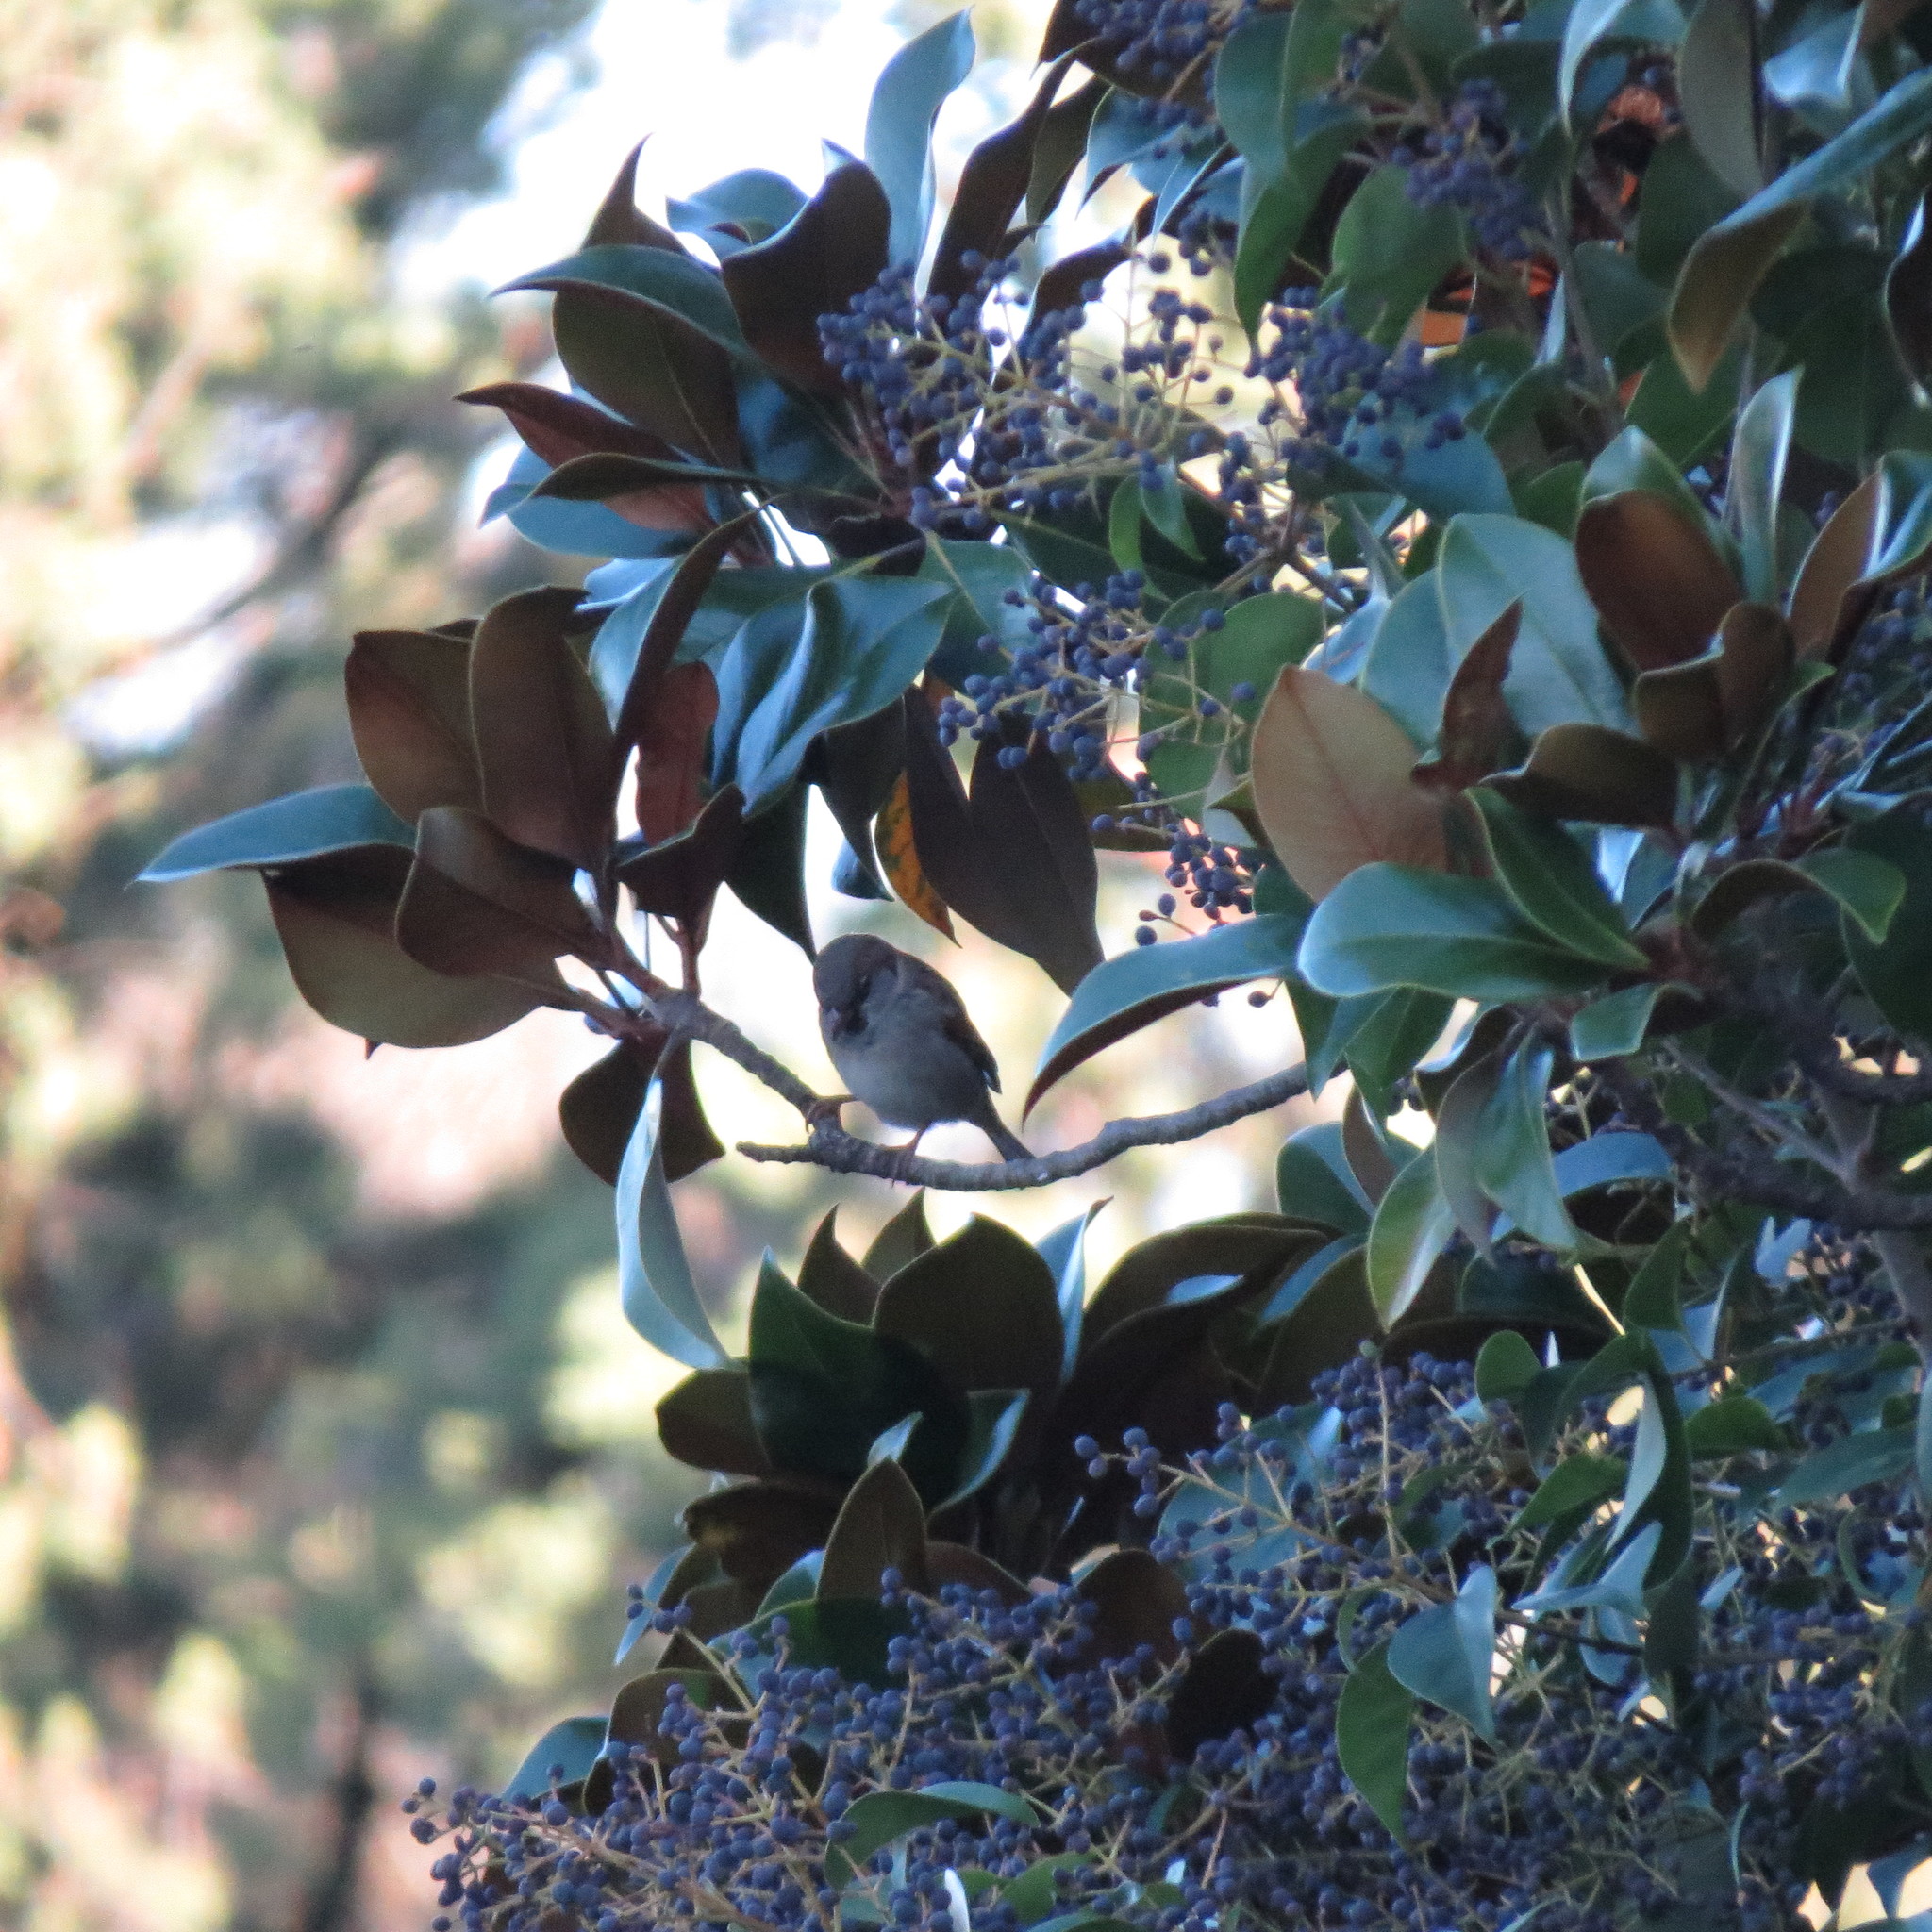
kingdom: Animalia
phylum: Chordata
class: Aves
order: Passeriformes
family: Passeridae
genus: Passer
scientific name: Passer domesticus
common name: House sparrow
